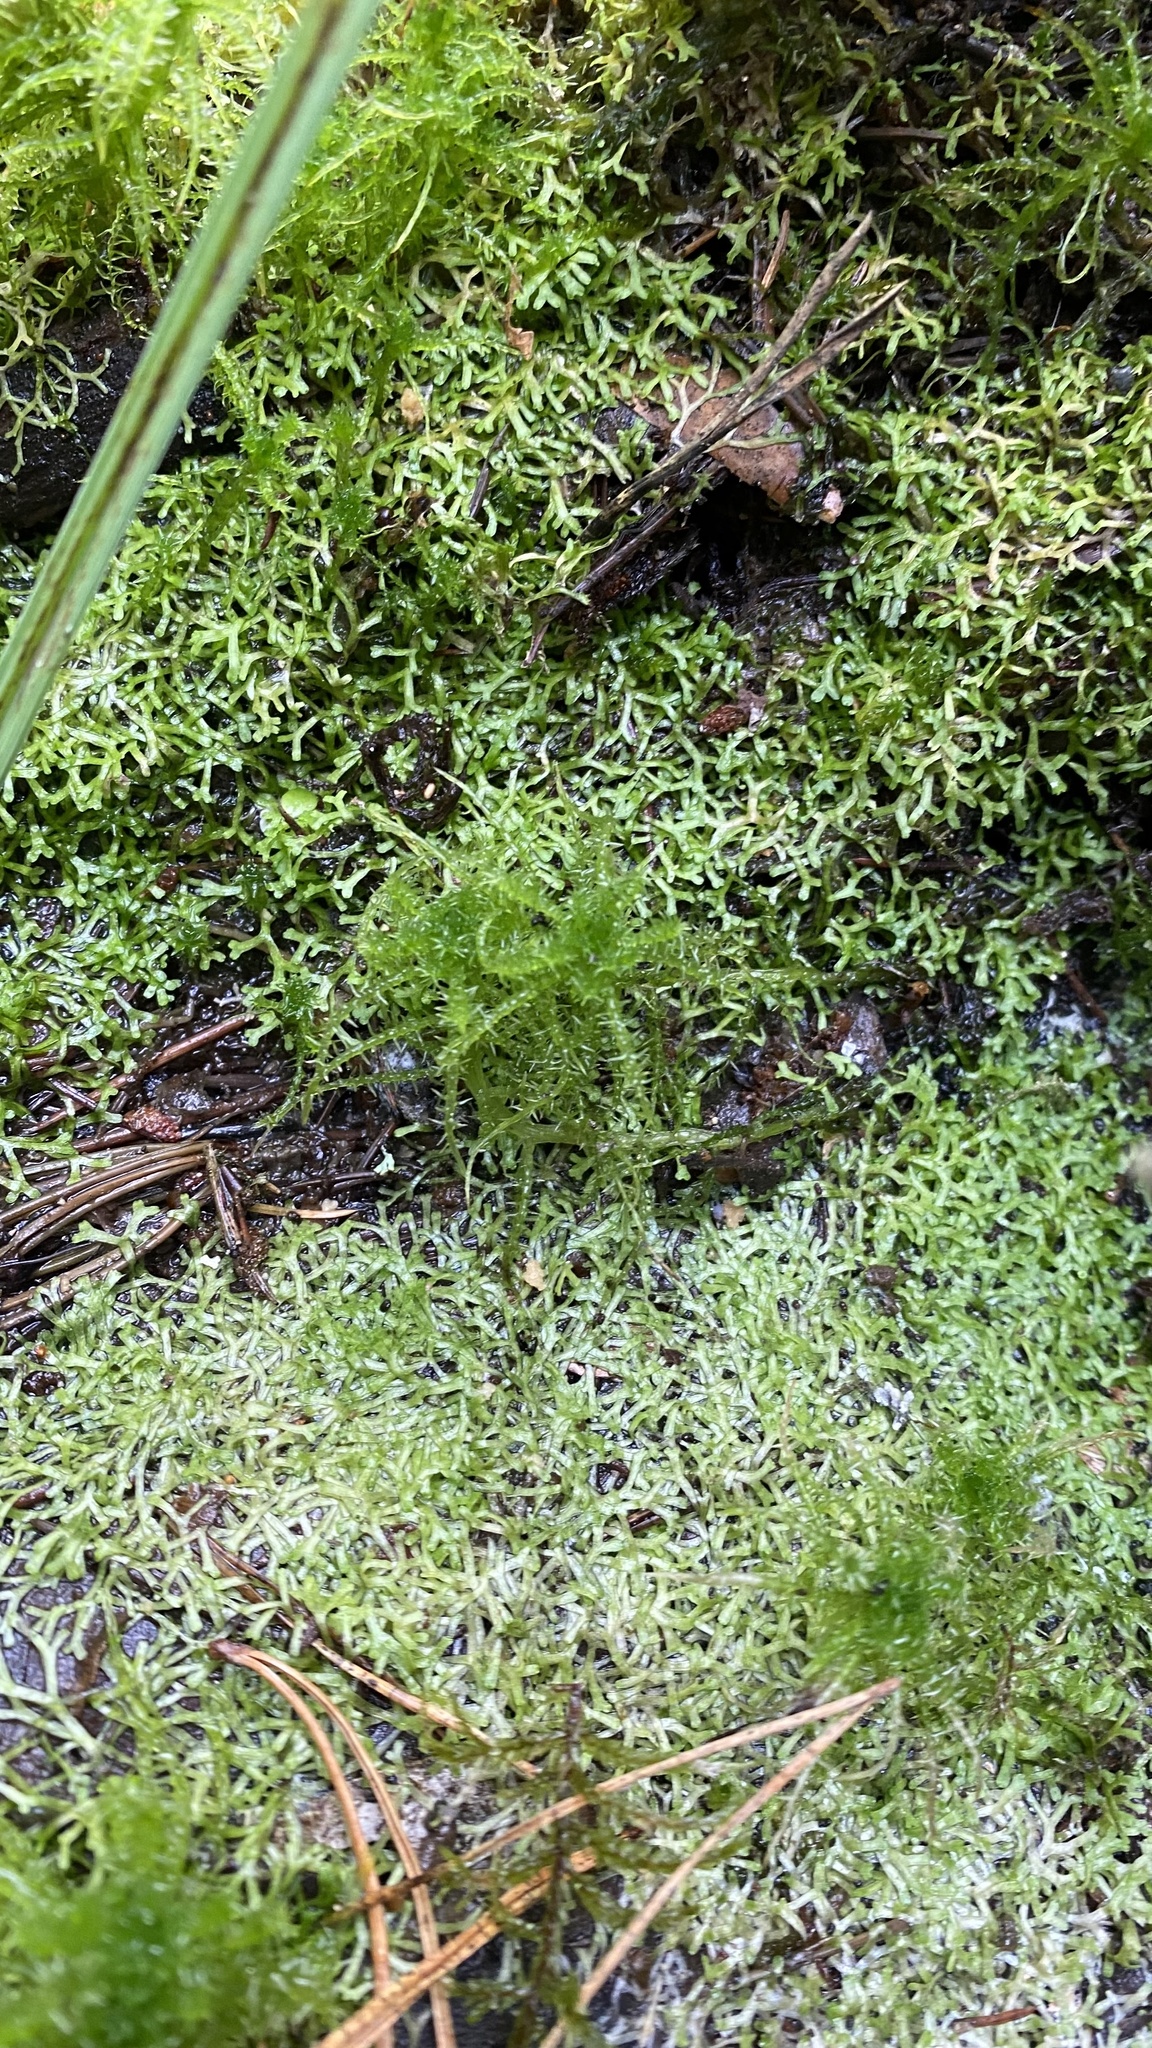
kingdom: Plantae
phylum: Marchantiophyta
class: Marchantiopsida
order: Marchantiales
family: Ricciaceae
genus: Riccia
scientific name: Riccia fluitans
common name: Floating crystalwort
